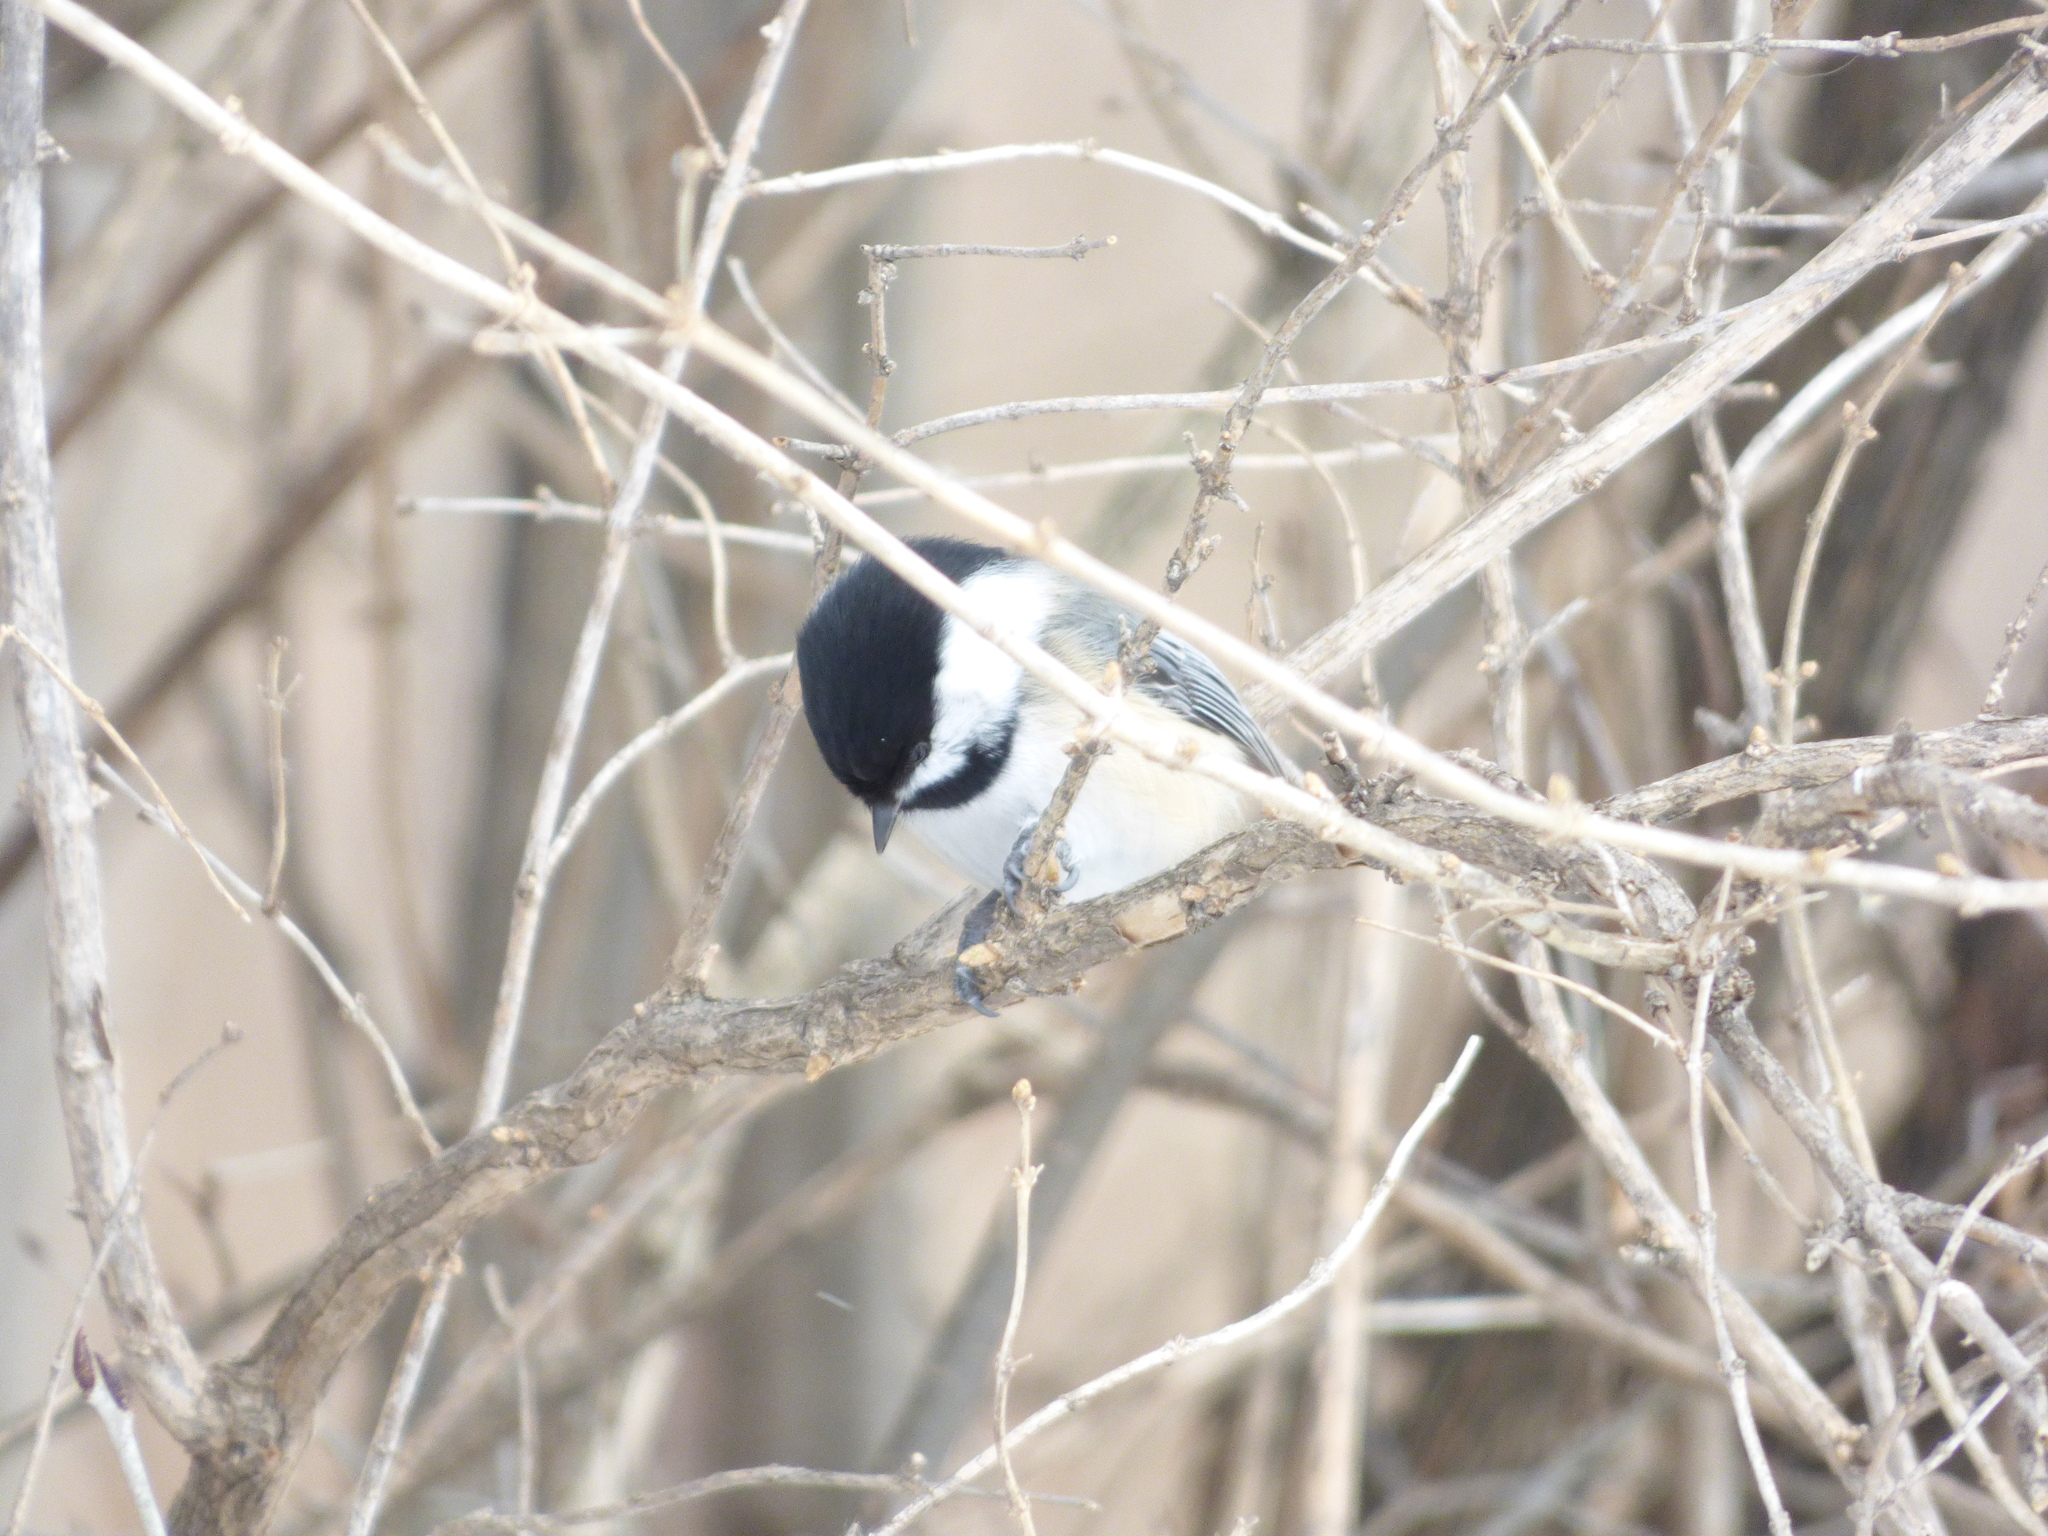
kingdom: Animalia
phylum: Chordata
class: Aves
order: Passeriformes
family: Paridae
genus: Poecile
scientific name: Poecile atricapillus
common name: Black-capped chickadee
